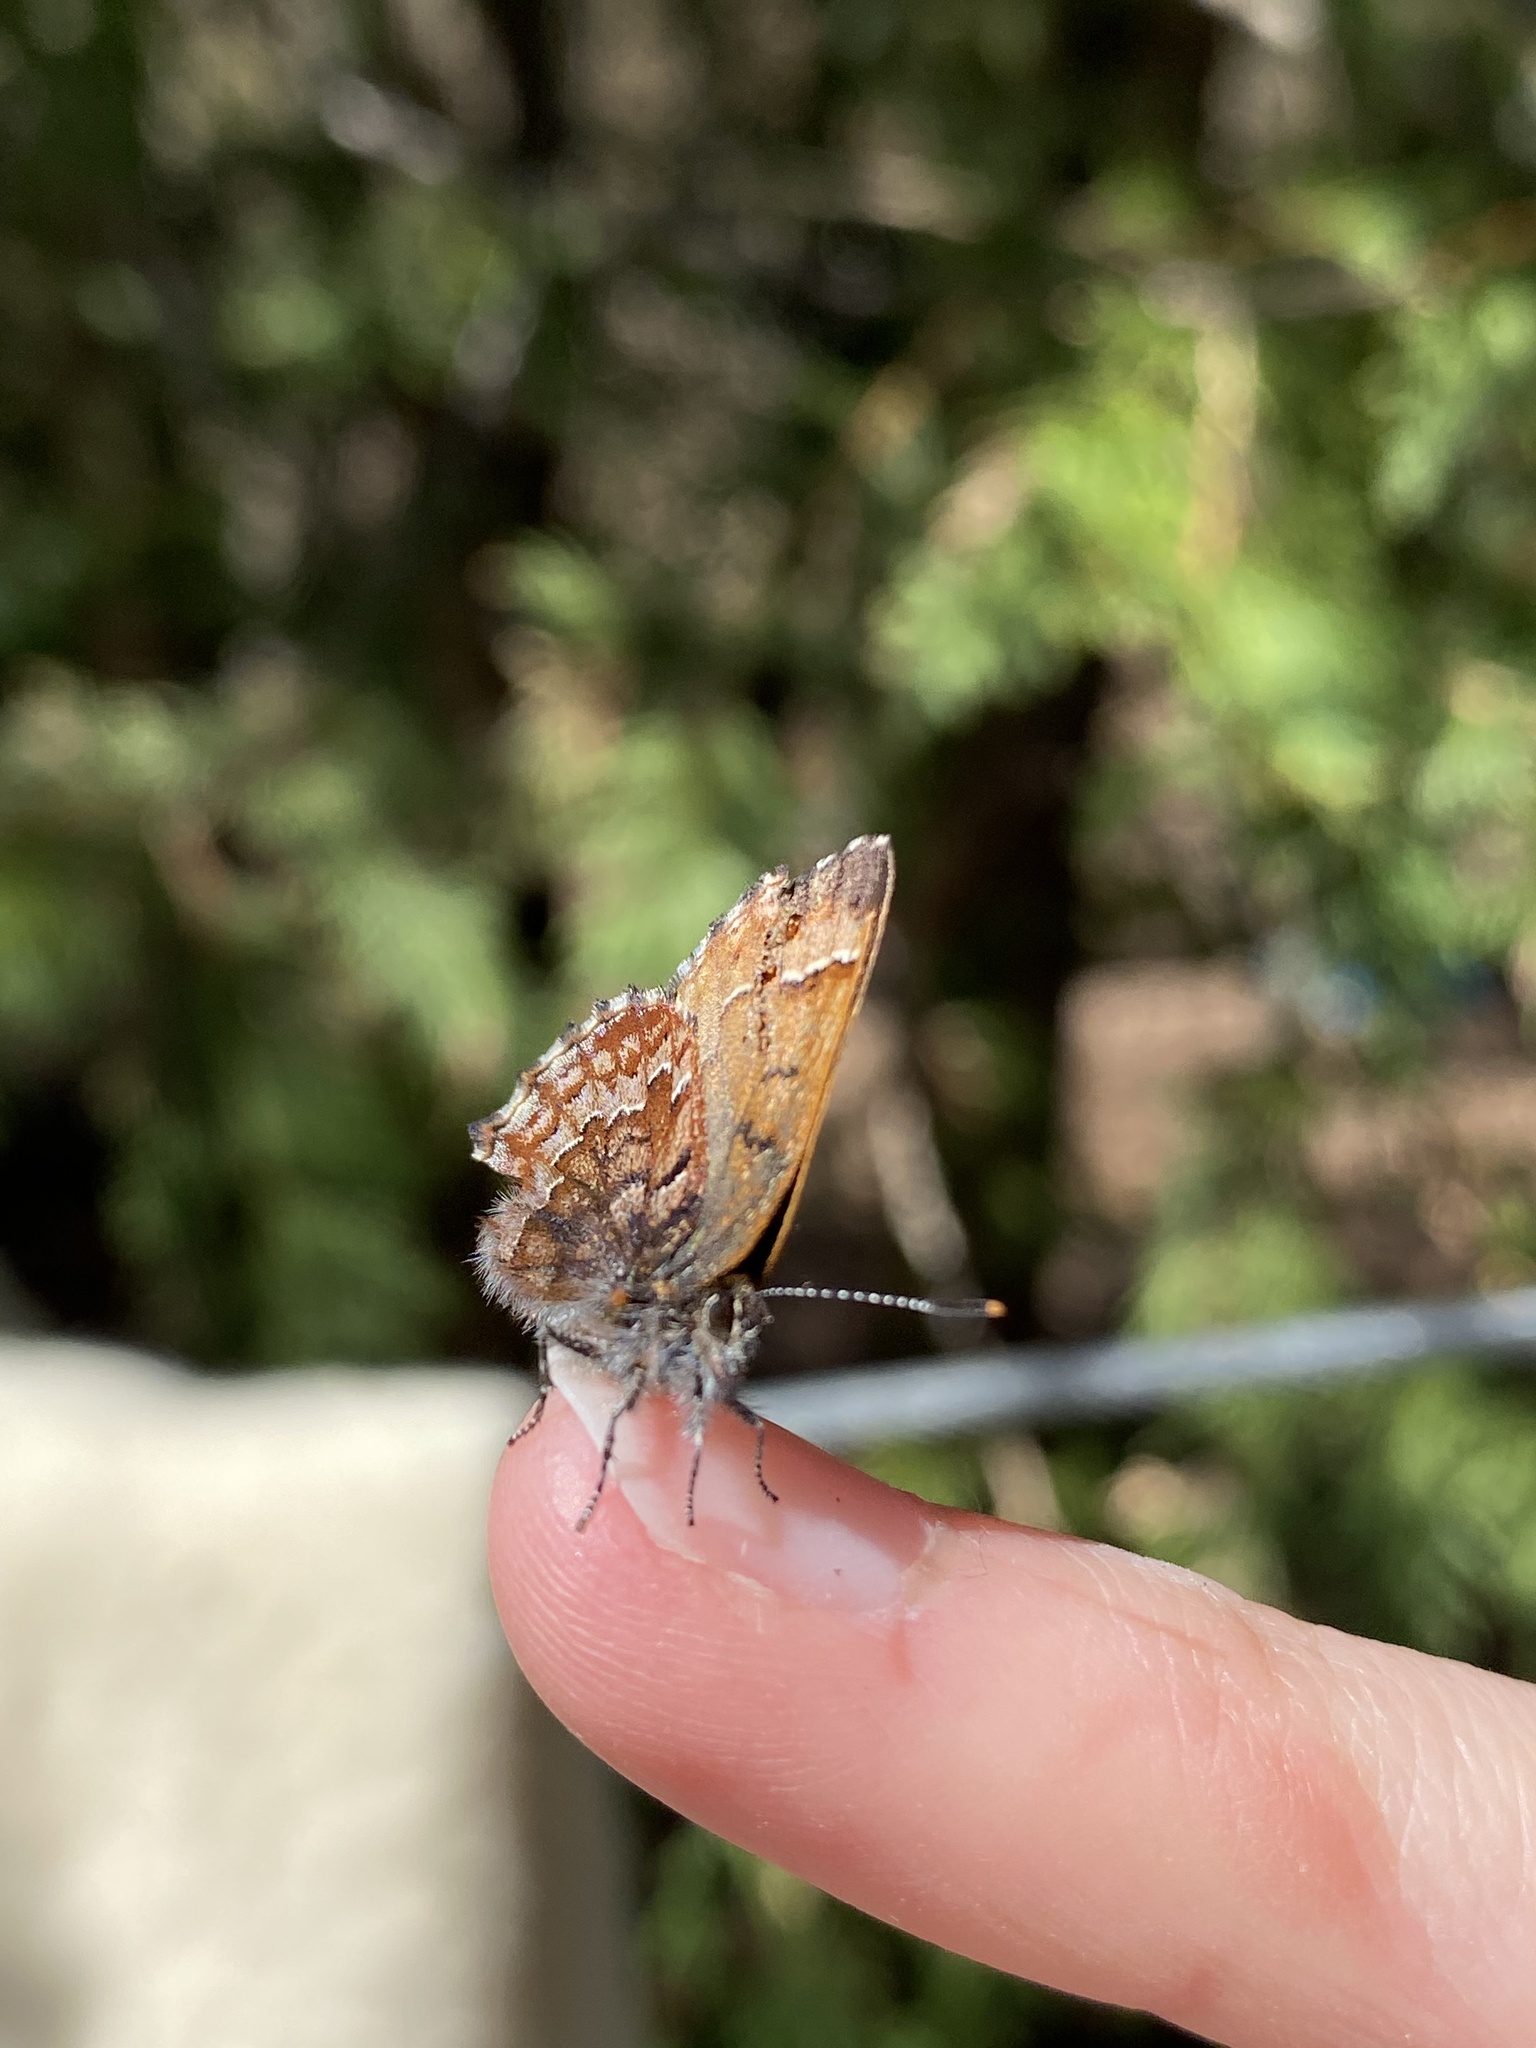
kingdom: Animalia
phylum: Arthropoda
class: Insecta
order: Lepidoptera
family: Lycaenidae
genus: Incisalia
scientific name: Incisalia niphon
